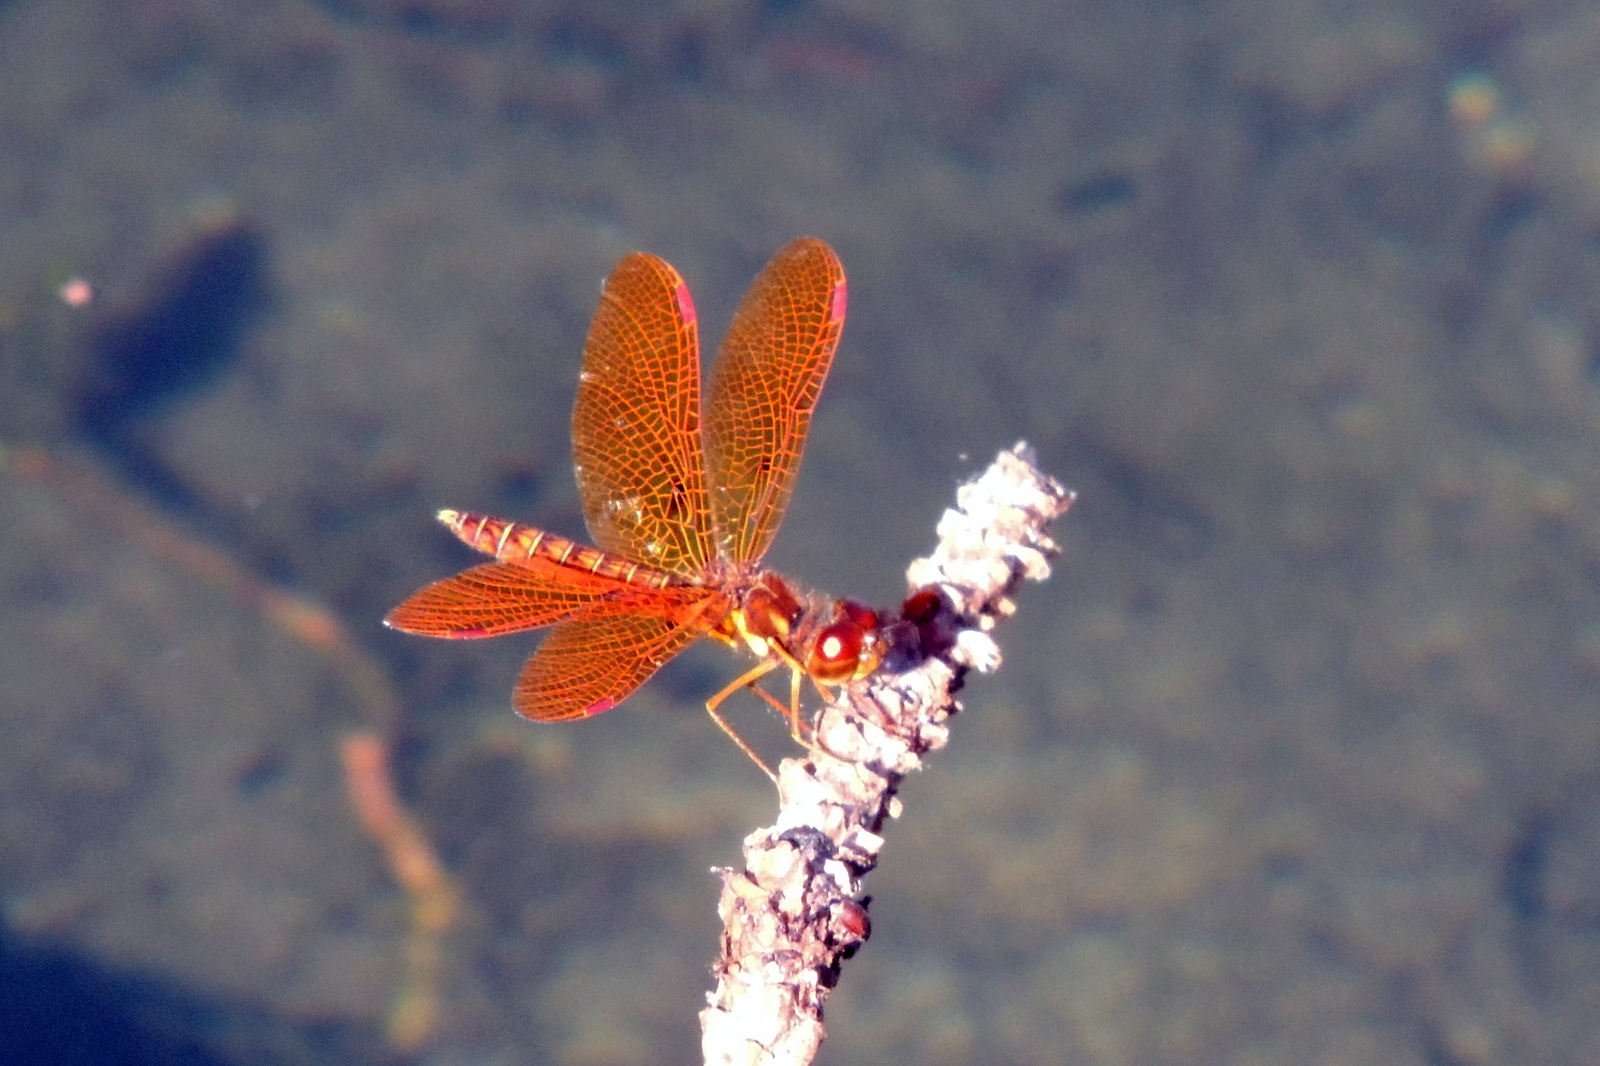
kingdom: Animalia
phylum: Arthropoda
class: Insecta
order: Odonata
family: Libellulidae
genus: Perithemis
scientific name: Perithemis tenera
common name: Eastern amberwing
